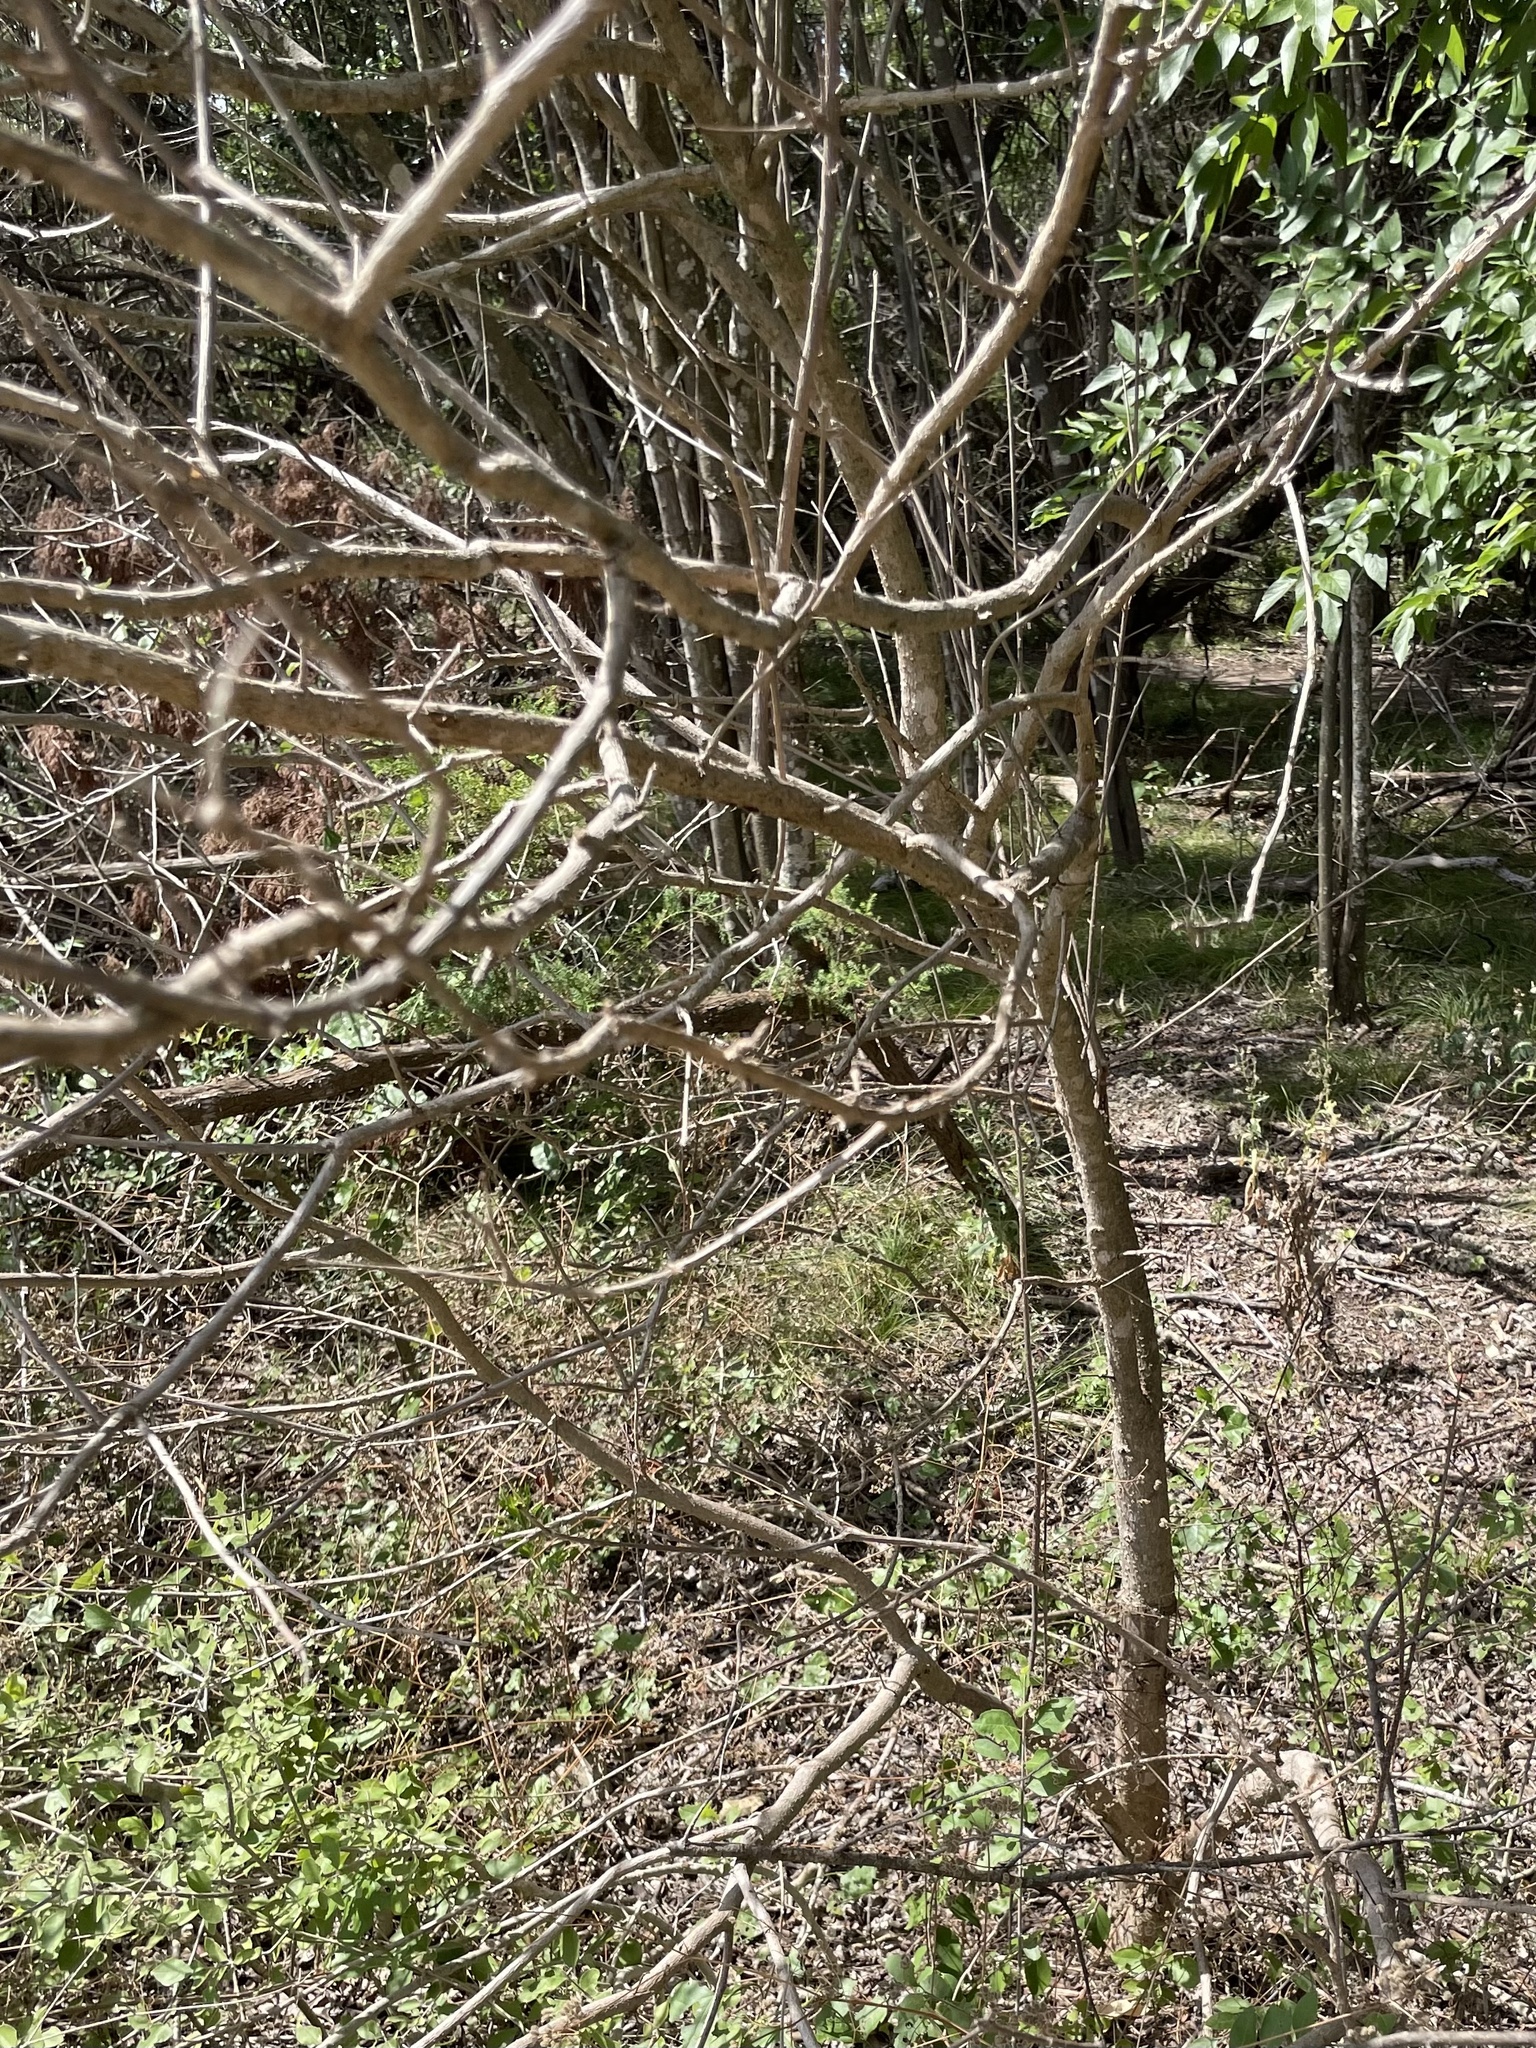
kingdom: Plantae
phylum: Tracheophyta
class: Magnoliopsida
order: Lamiales
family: Oleaceae
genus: Ligustrum
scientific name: Ligustrum lucidum
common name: Glossy privet
